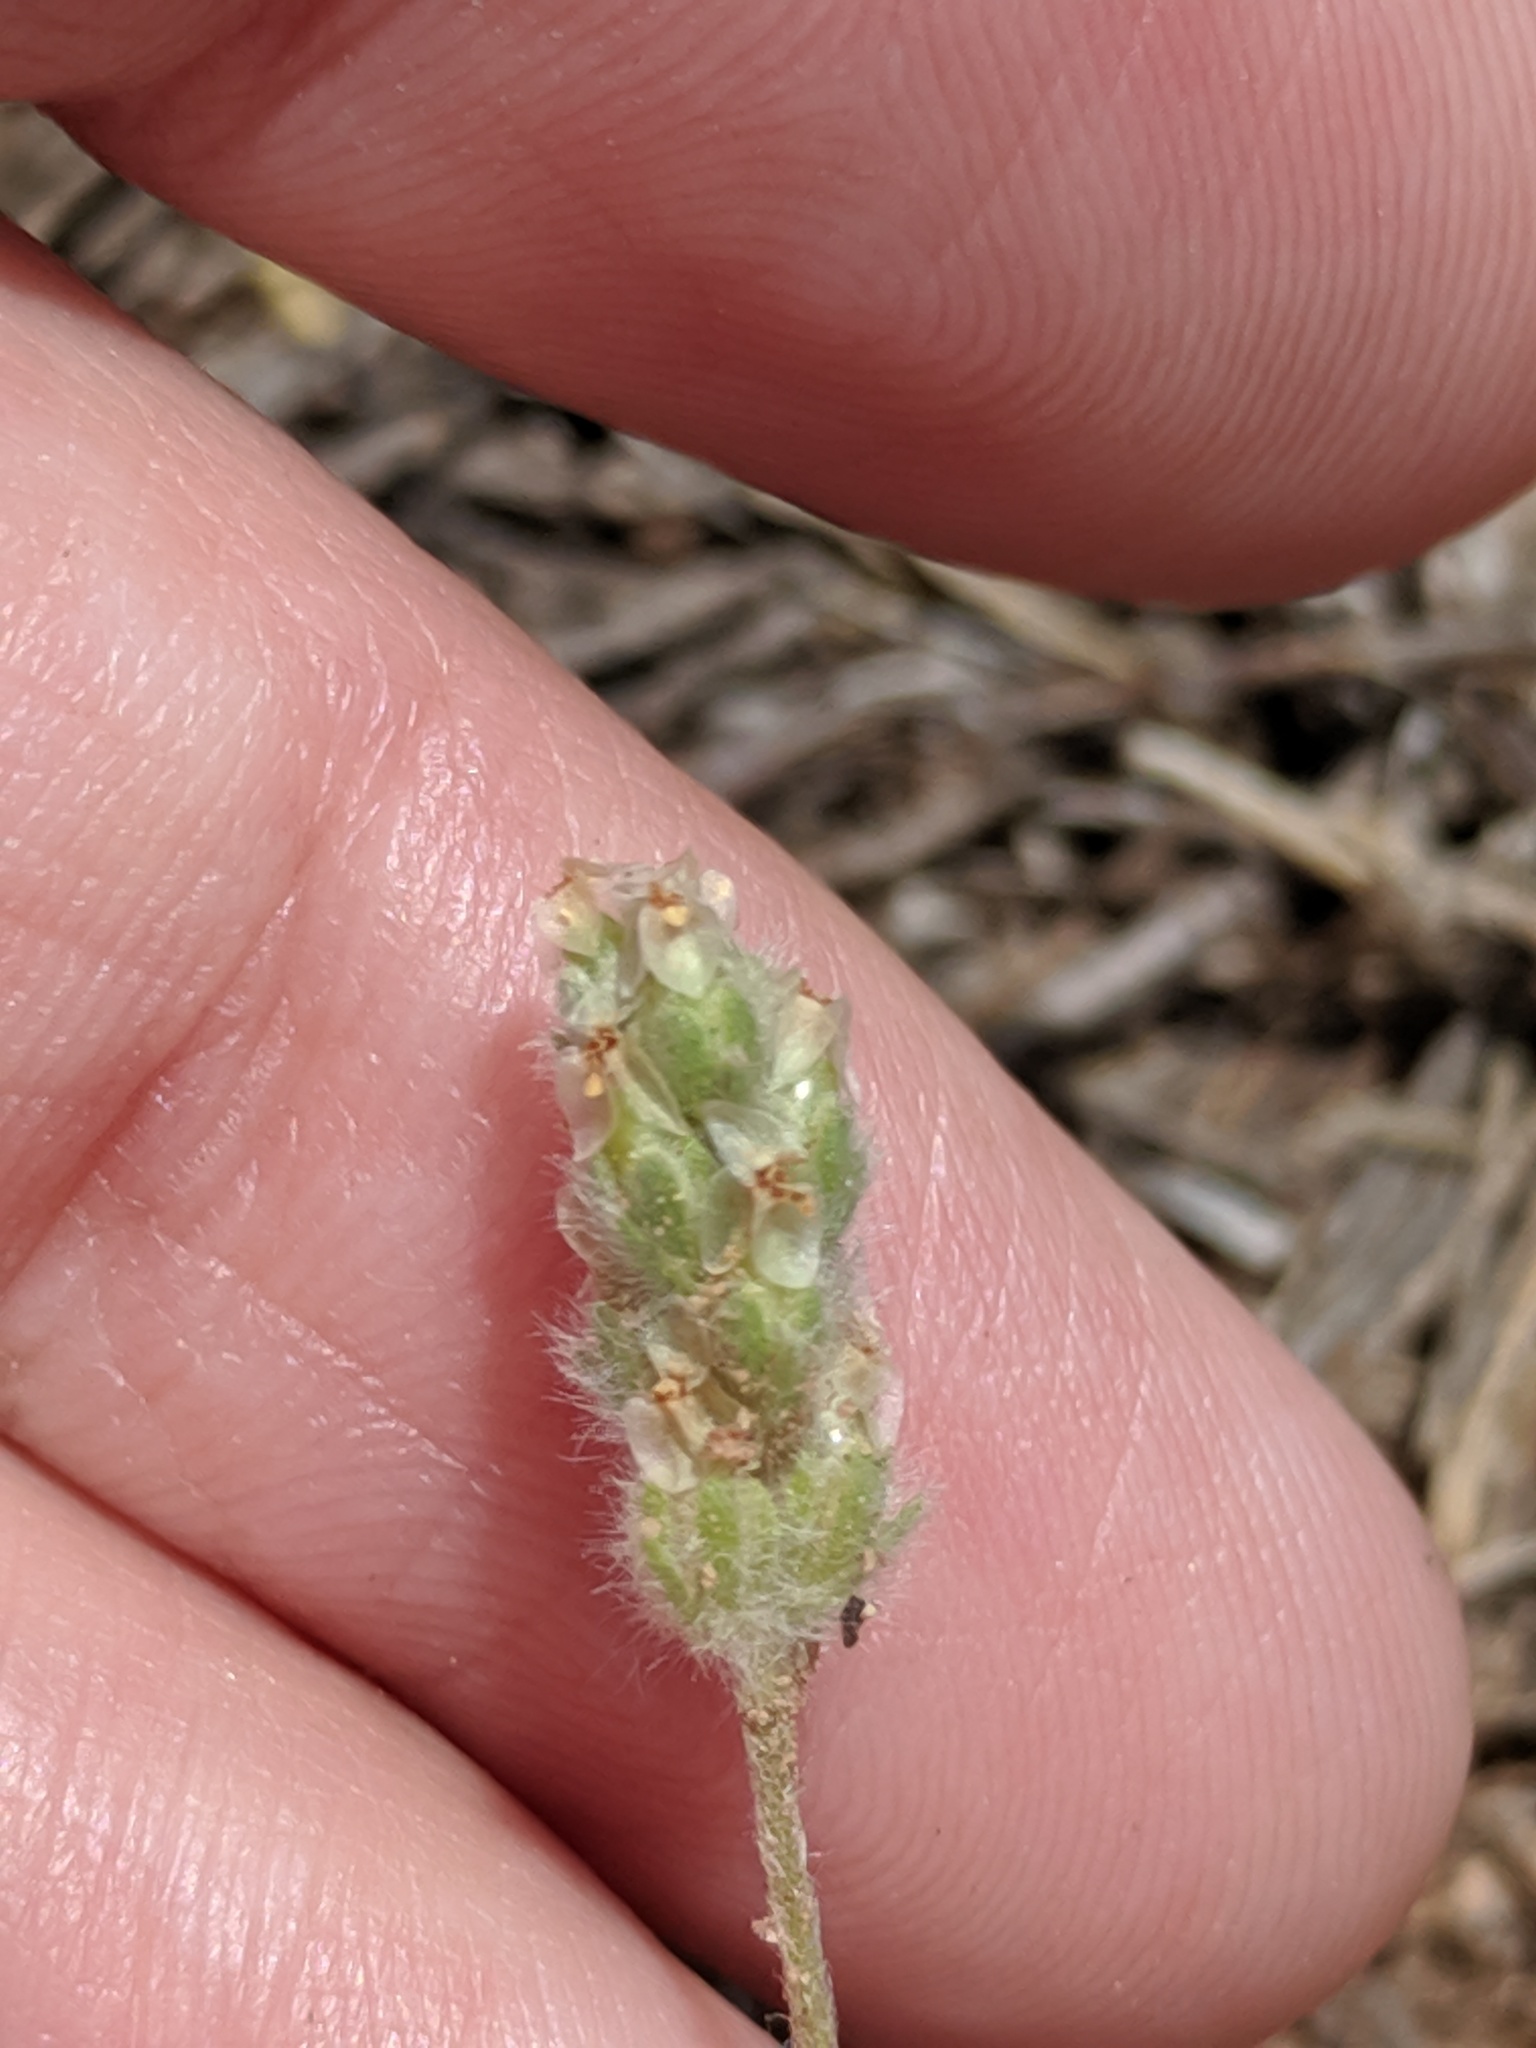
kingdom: Plantae
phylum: Tracheophyta
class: Magnoliopsida
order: Lamiales
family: Plantaginaceae
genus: Plantago
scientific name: Plantago patagonica
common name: Patagonia indian-wheat
